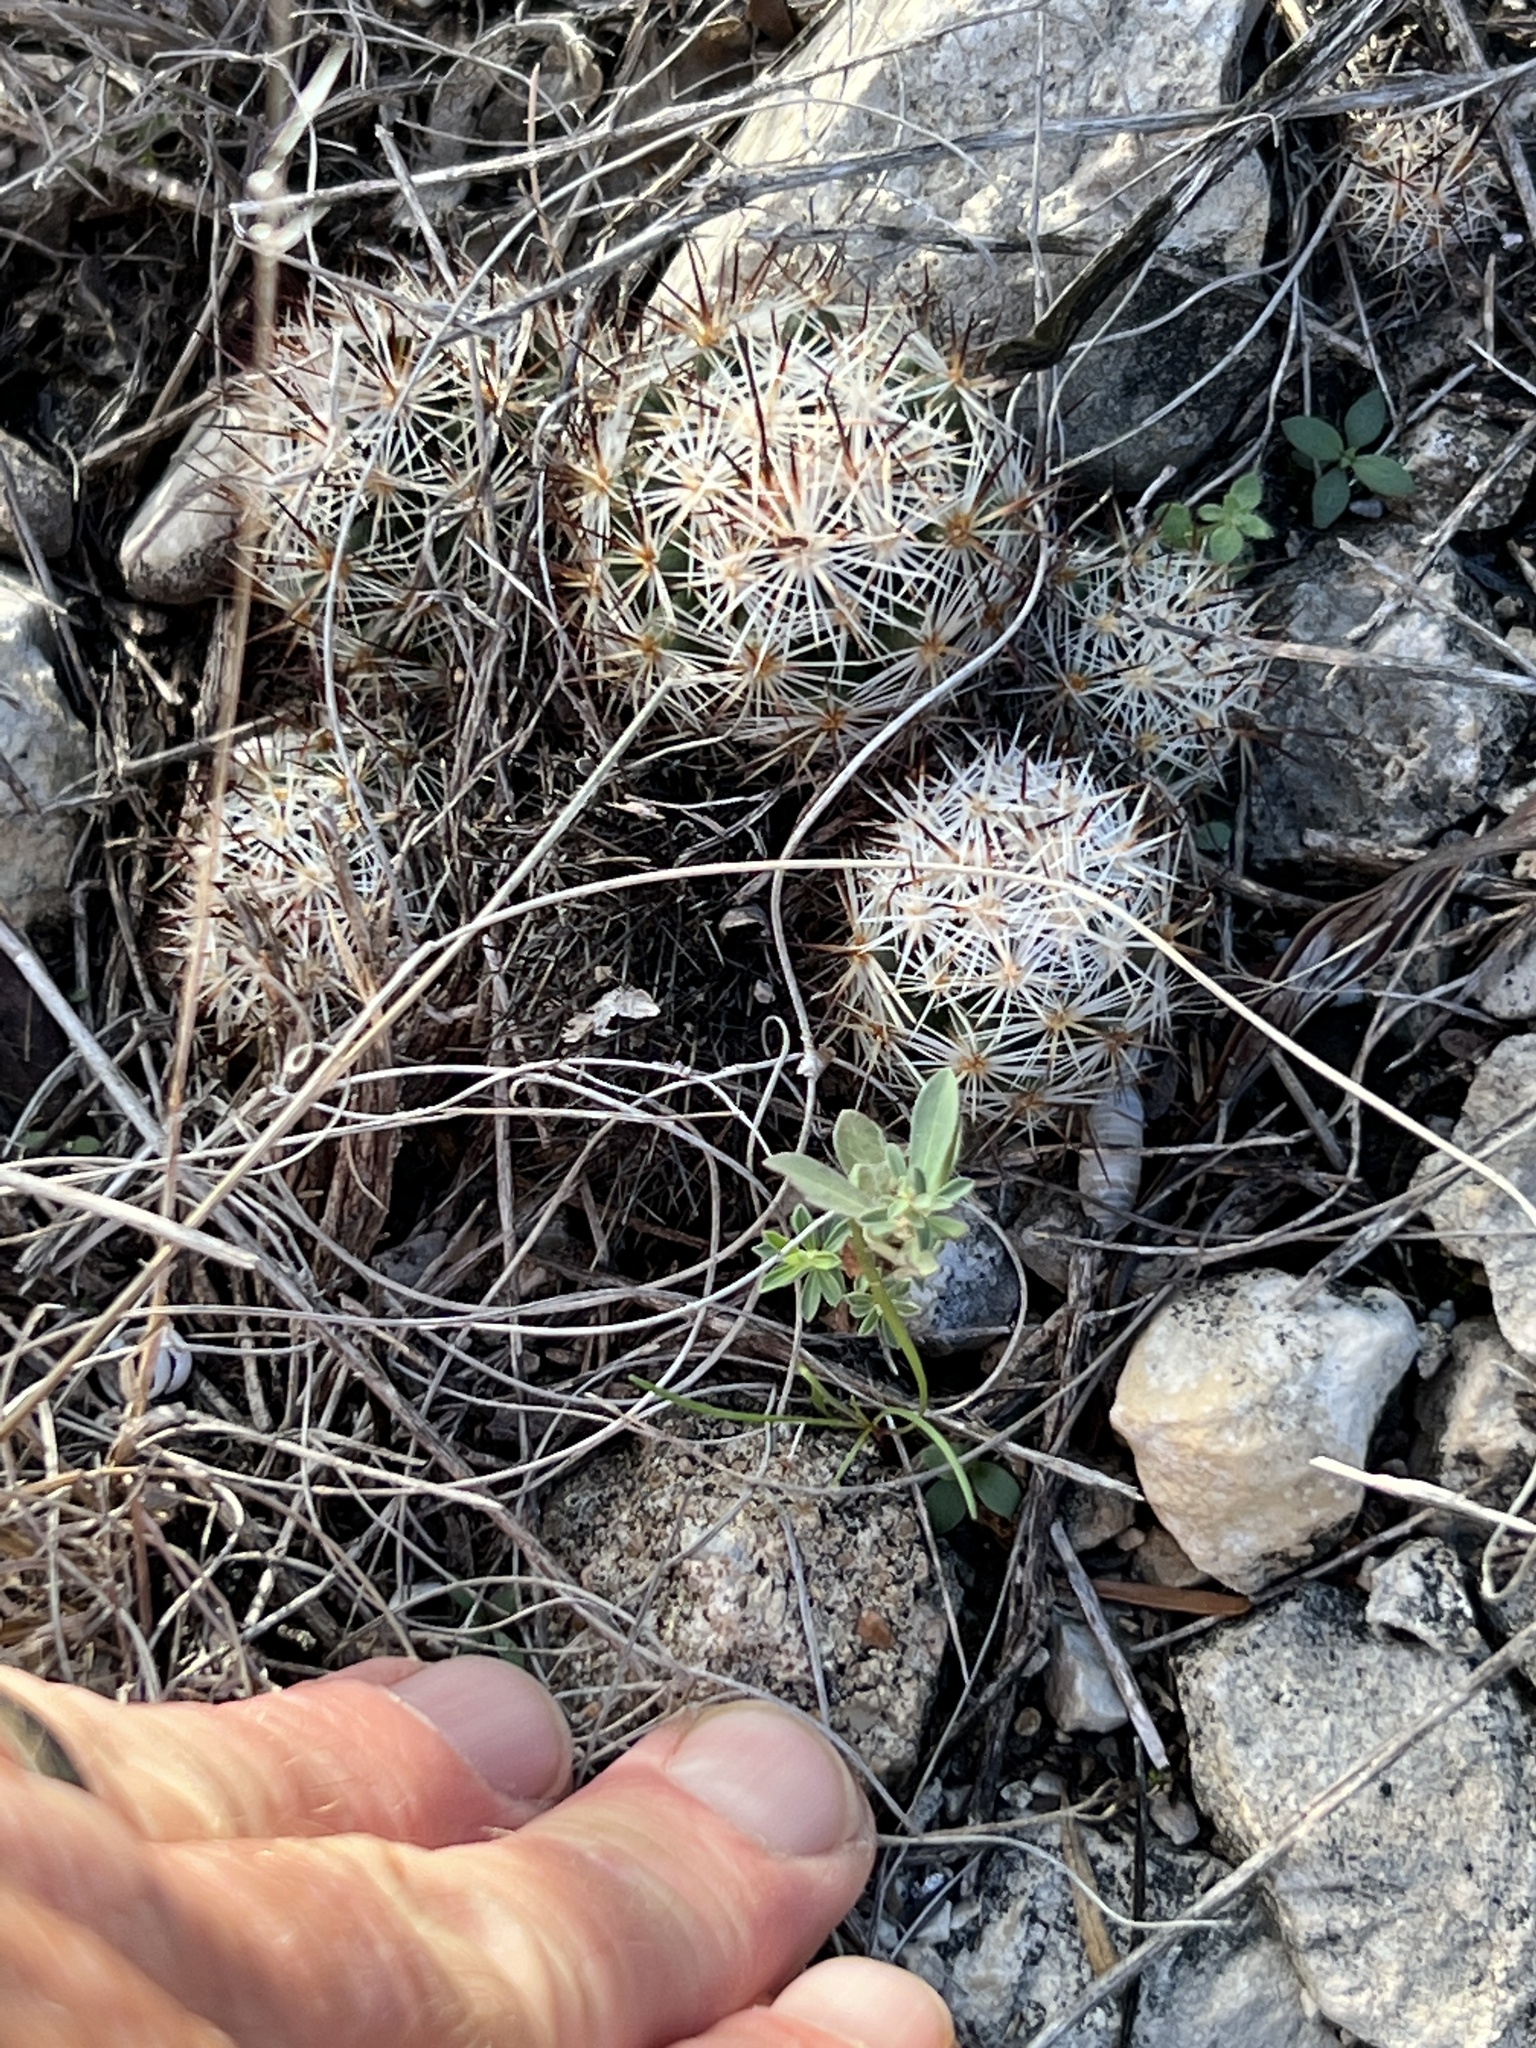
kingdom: Plantae
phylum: Tracheophyta
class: Magnoliopsida
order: Caryophyllales
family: Cactaceae
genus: Pelecyphora
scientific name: Pelecyphora emskoetteriana
